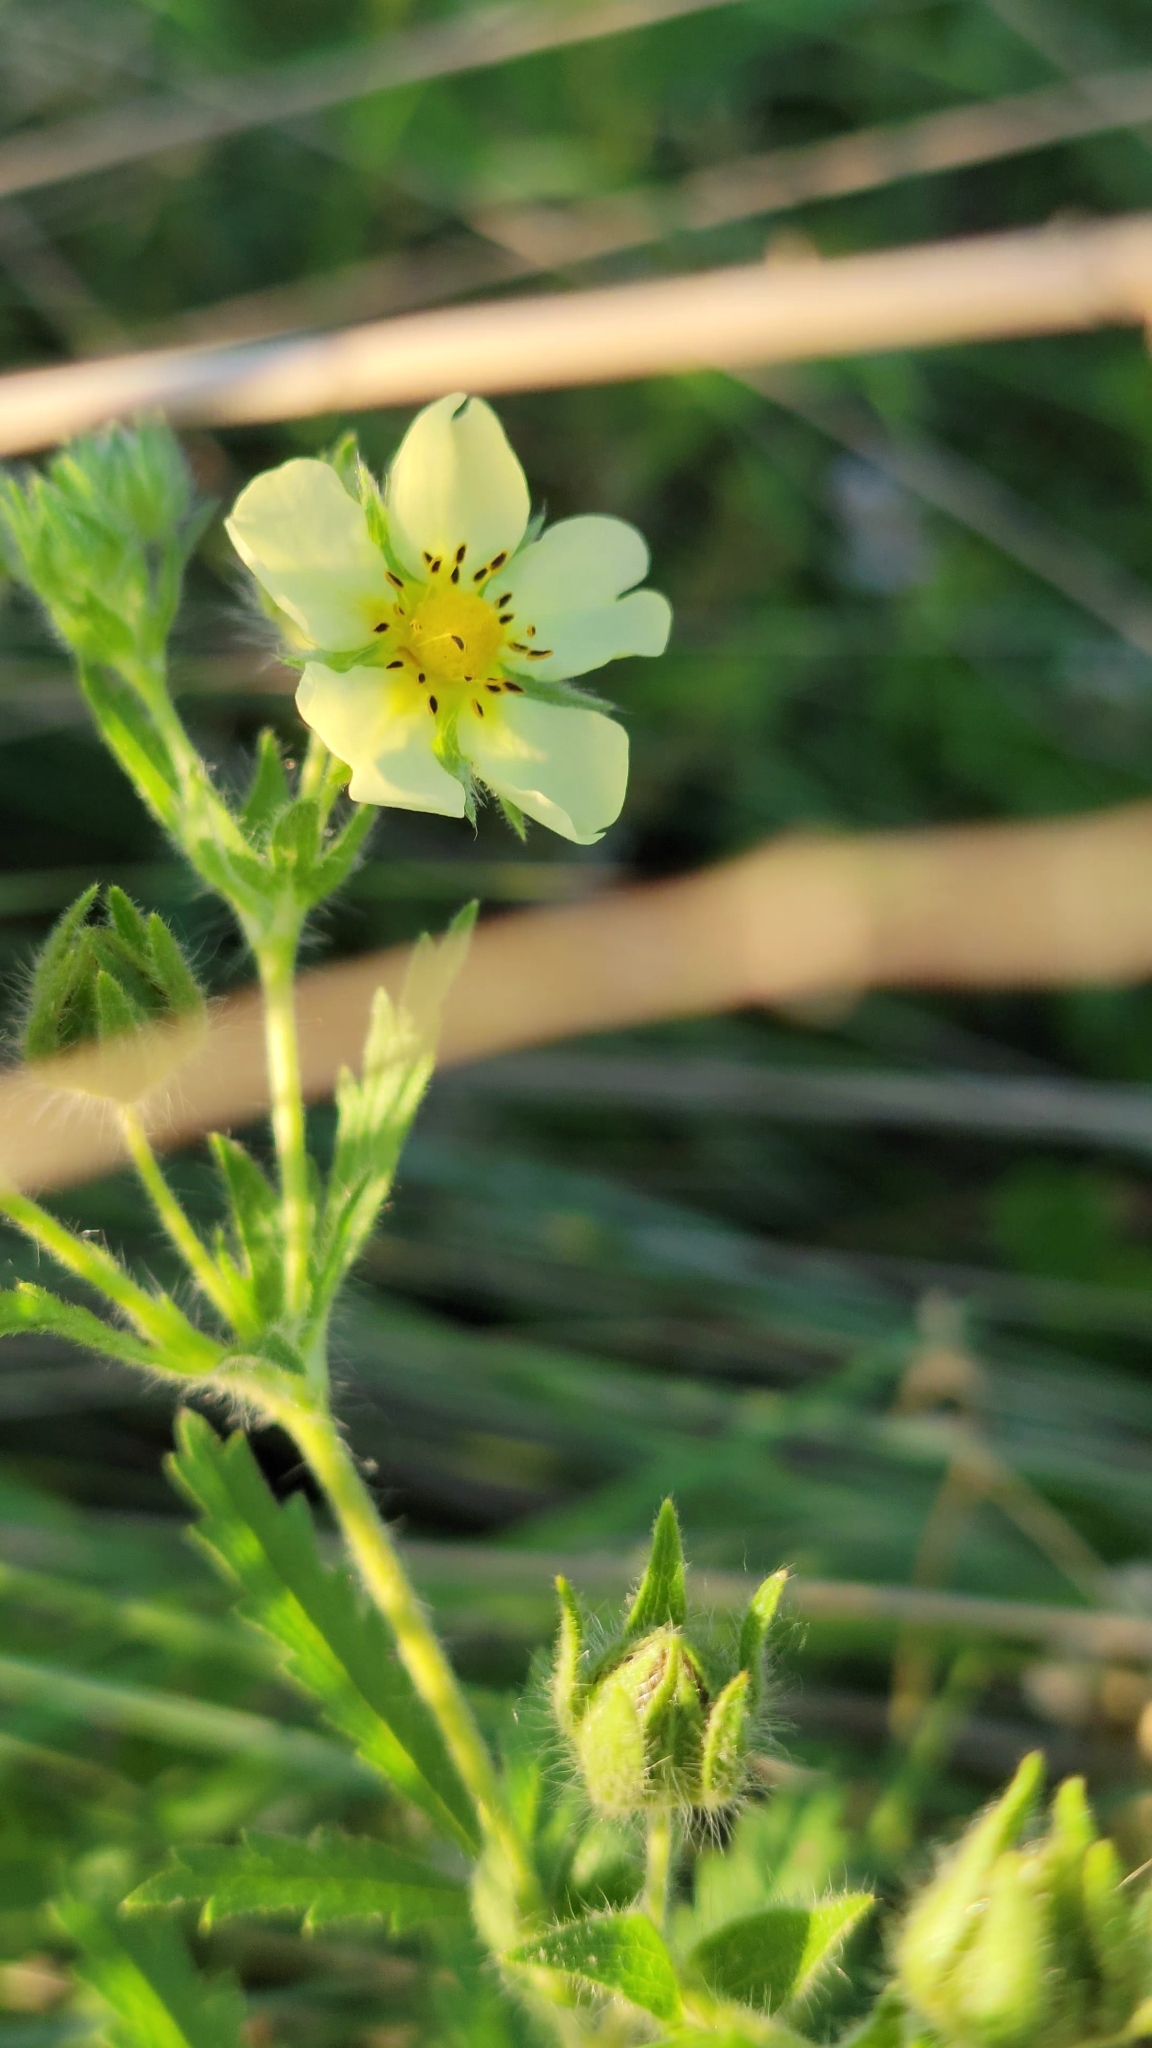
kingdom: Plantae
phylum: Tracheophyta
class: Magnoliopsida
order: Rosales
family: Rosaceae
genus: Potentilla
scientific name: Potentilla recta
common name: Sulphur cinquefoil
